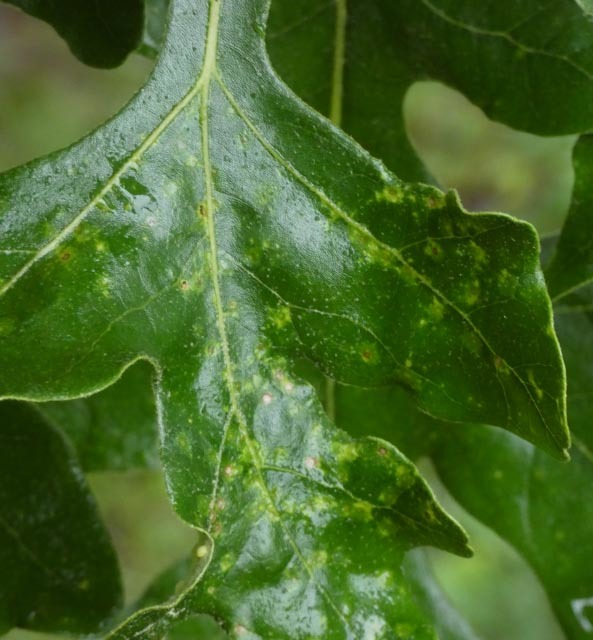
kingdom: Animalia
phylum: Arthropoda
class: Insecta
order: Hymenoptera
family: Cynipidae
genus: Neuroterus
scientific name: Neuroterus
